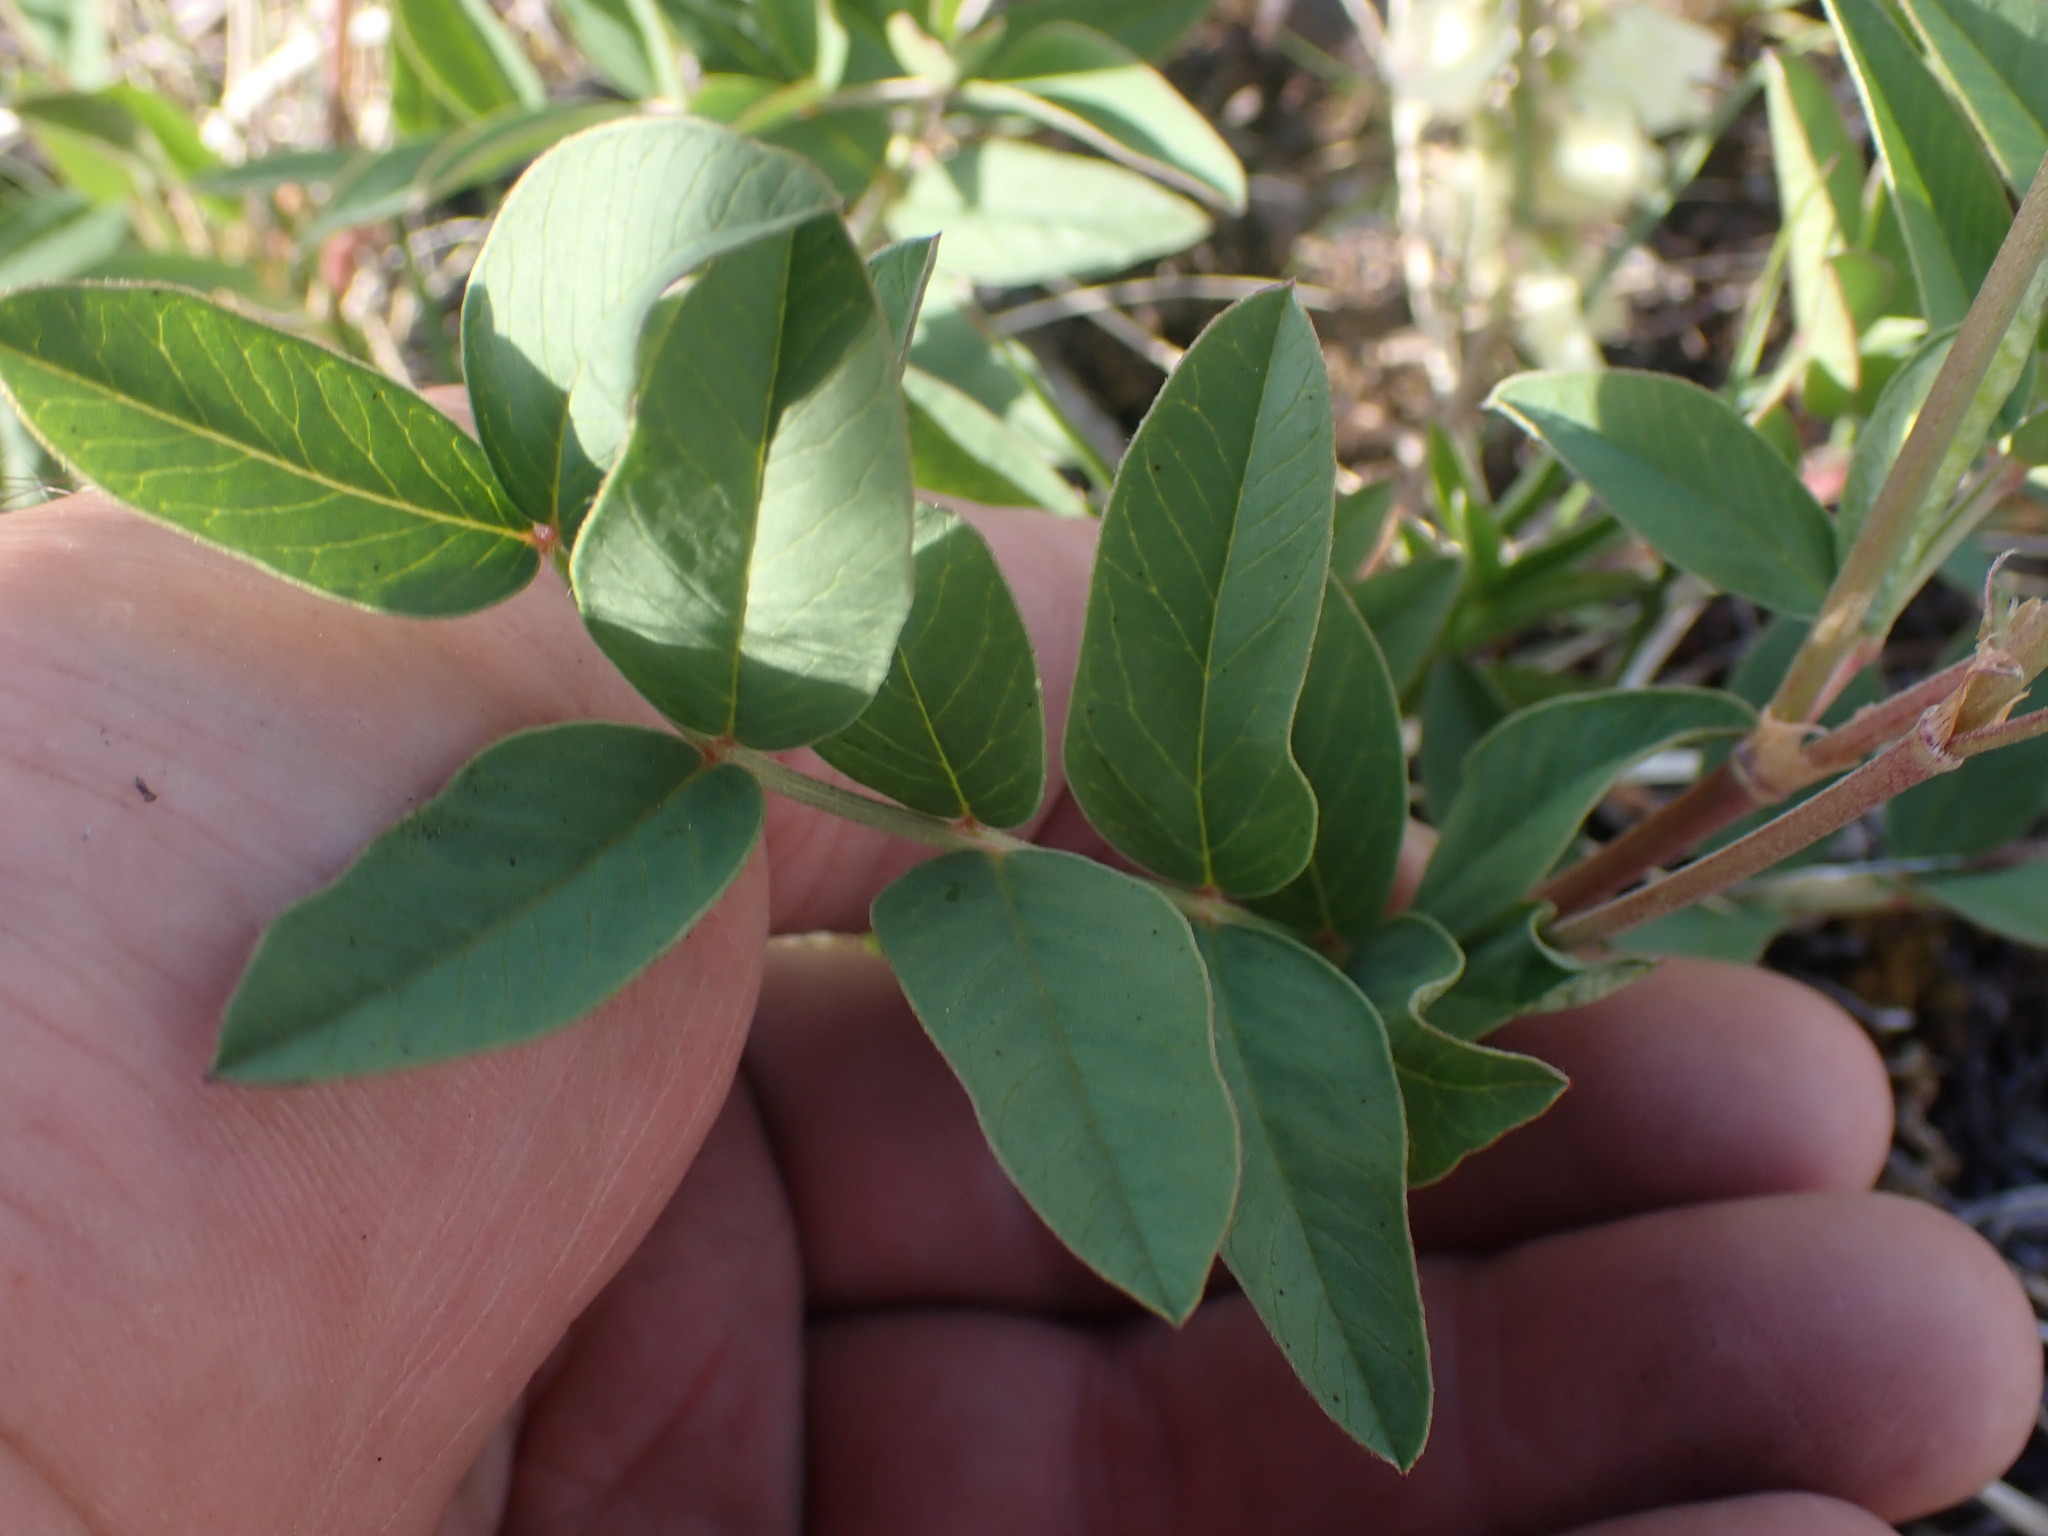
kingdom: Plantae
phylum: Tracheophyta
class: Magnoliopsida
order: Fabales
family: Fabaceae
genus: Hedysarum
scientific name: Hedysarum sulphurescens
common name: Sulphur hedysarum
